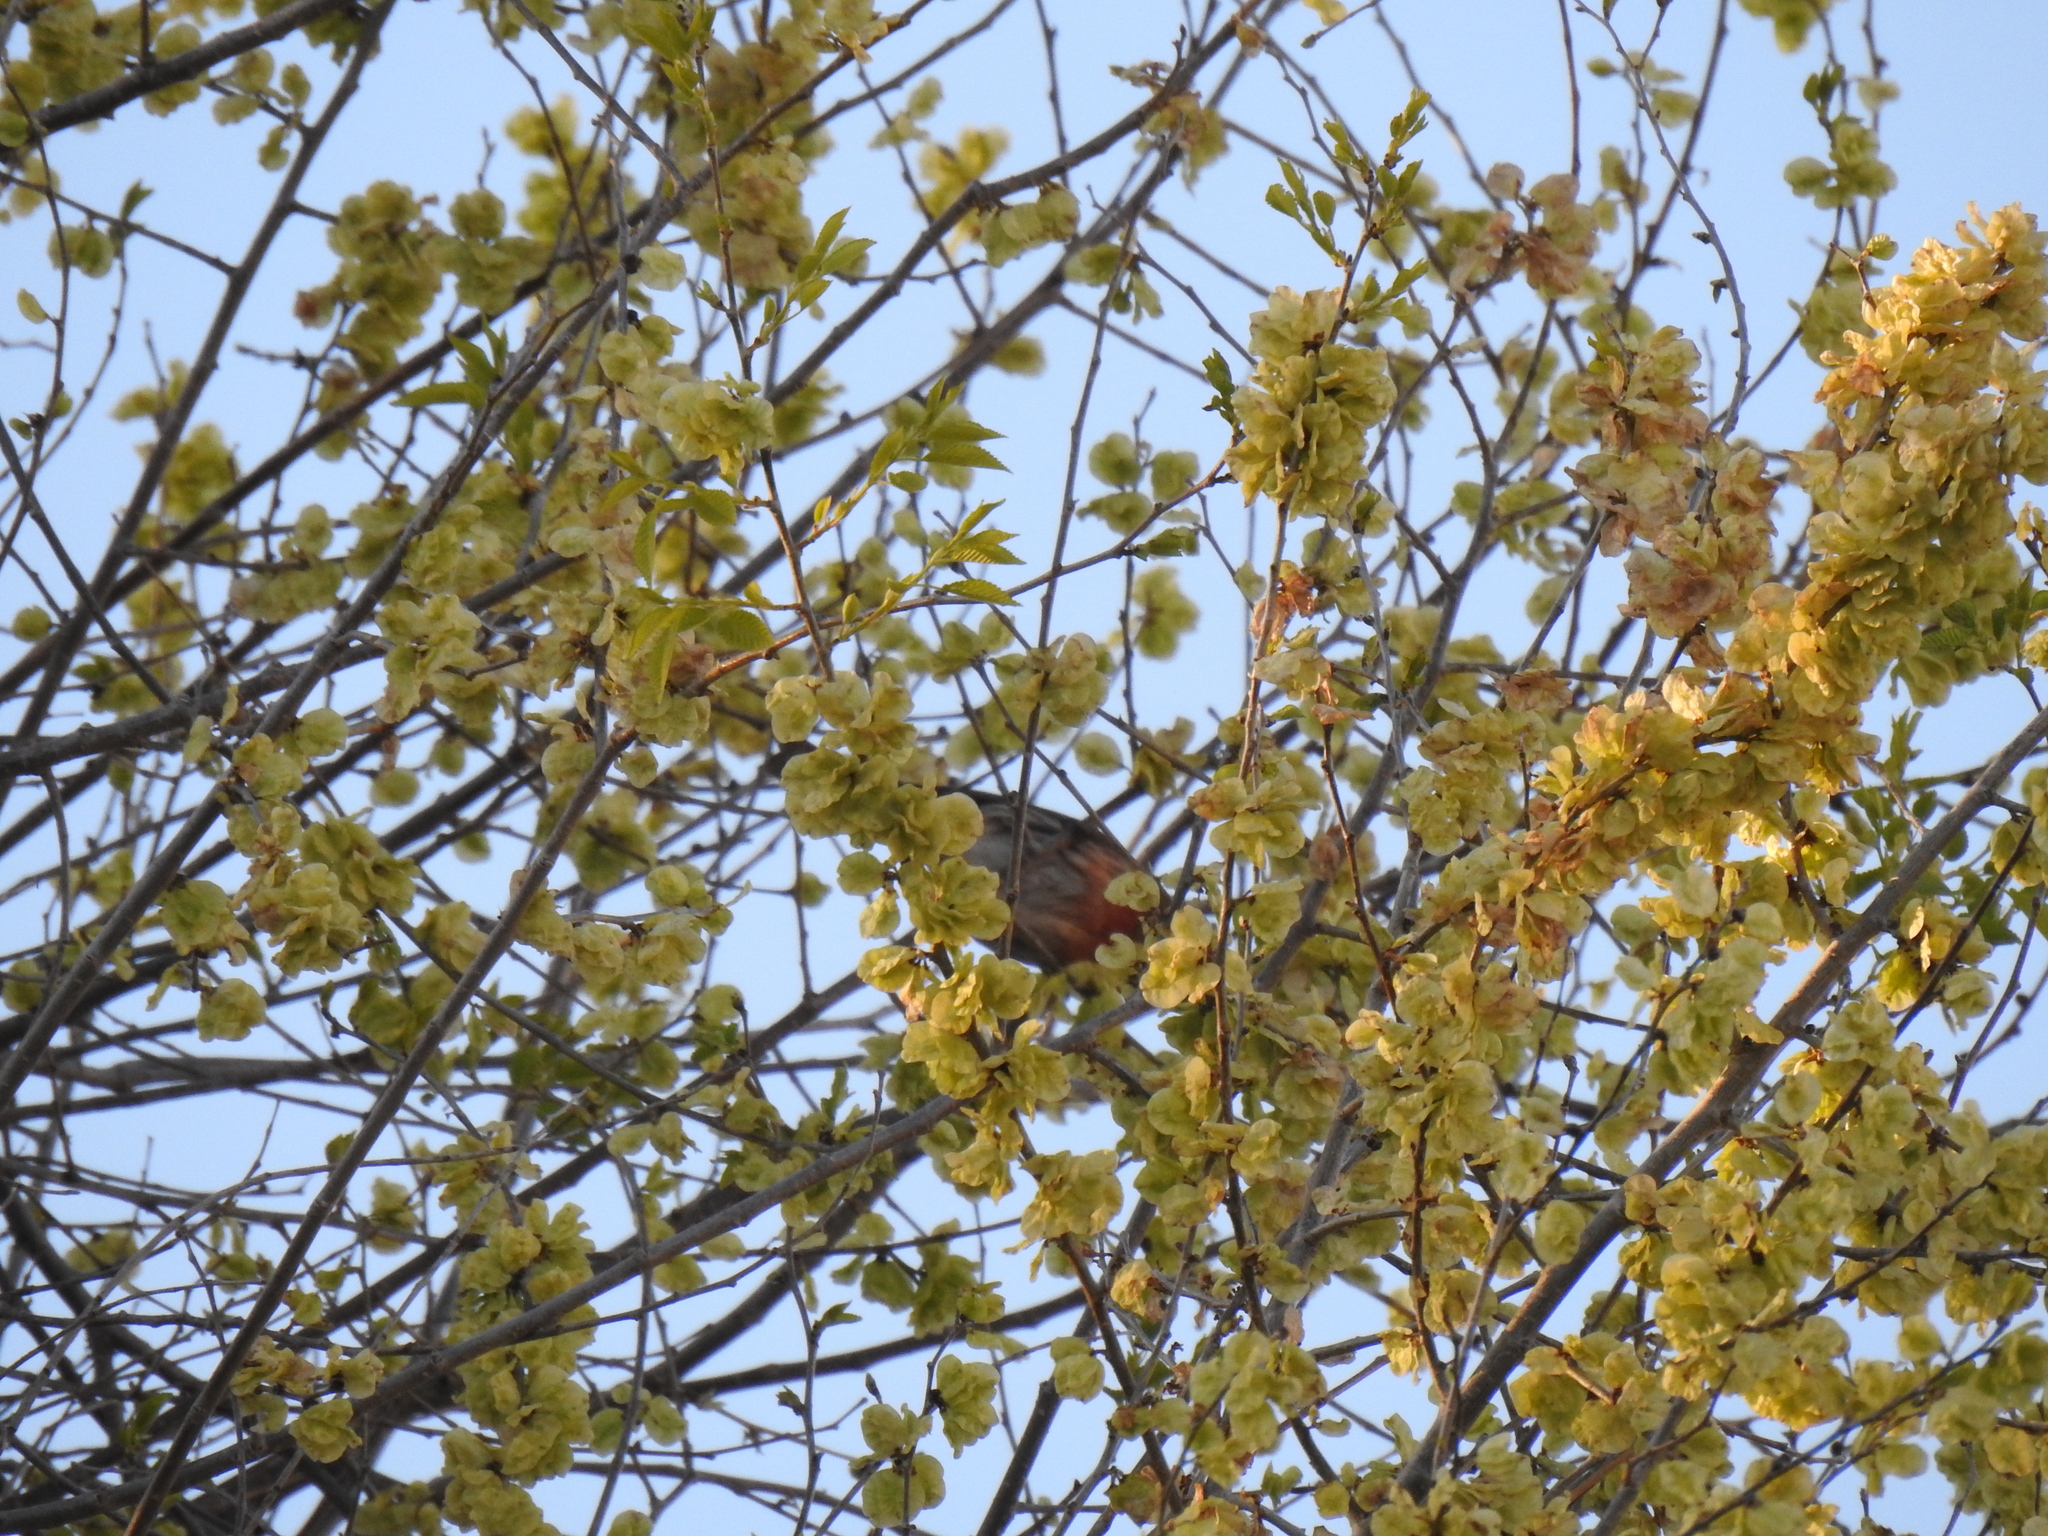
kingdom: Animalia
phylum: Chordata
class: Aves
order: Passeriformes
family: Fringillidae
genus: Haemorhous
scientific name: Haemorhous mexicanus
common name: House finch
